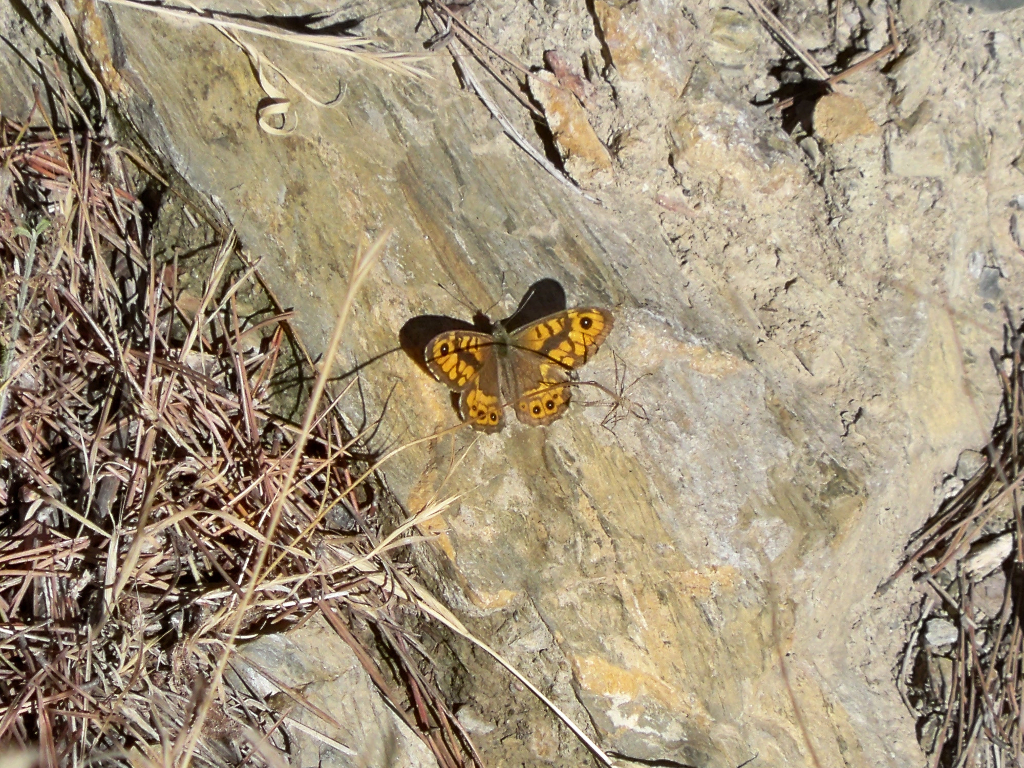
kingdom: Animalia
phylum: Arthropoda
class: Insecta
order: Lepidoptera
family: Nymphalidae
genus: Pararge
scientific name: Pararge Lasiommata megera
